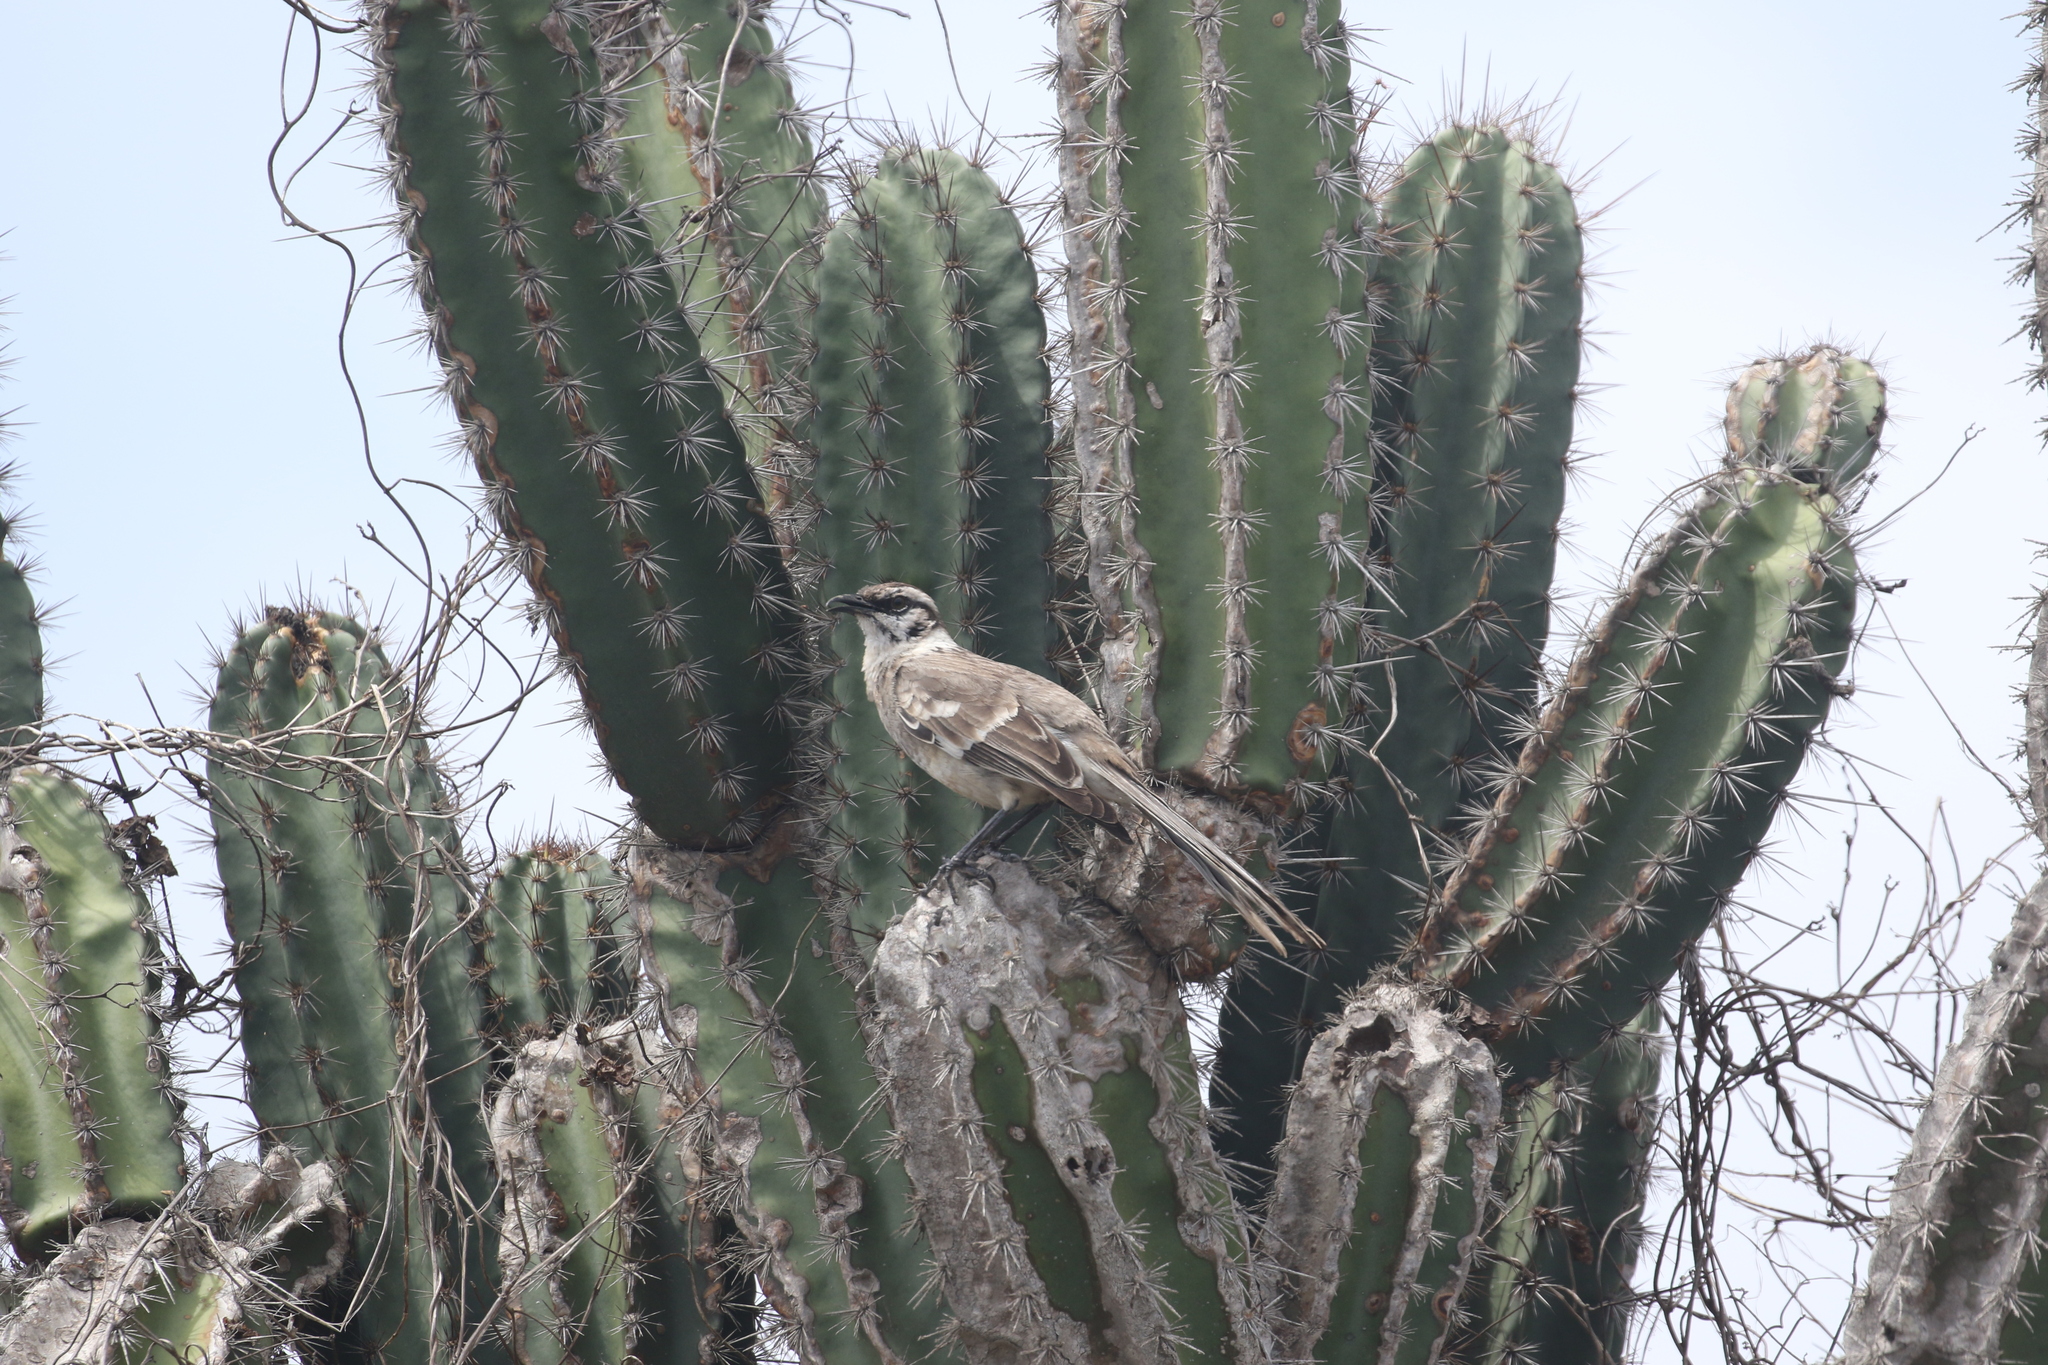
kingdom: Plantae
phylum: Tracheophyta
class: Magnoliopsida
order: Caryophyllales
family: Cactaceae
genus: Armatocereus
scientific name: Armatocereus cartwrightianus
